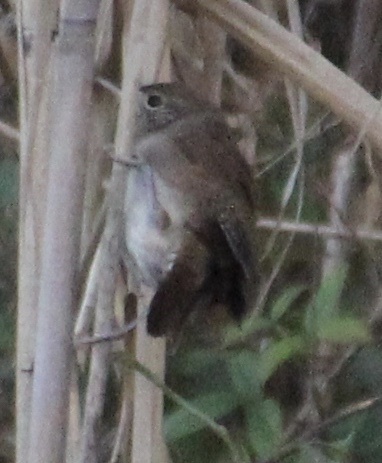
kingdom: Animalia
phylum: Chordata
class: Aves
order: Passeriformes
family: Troglodytidae
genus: Troglodytes
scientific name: Troglodytes aedon
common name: House wren
